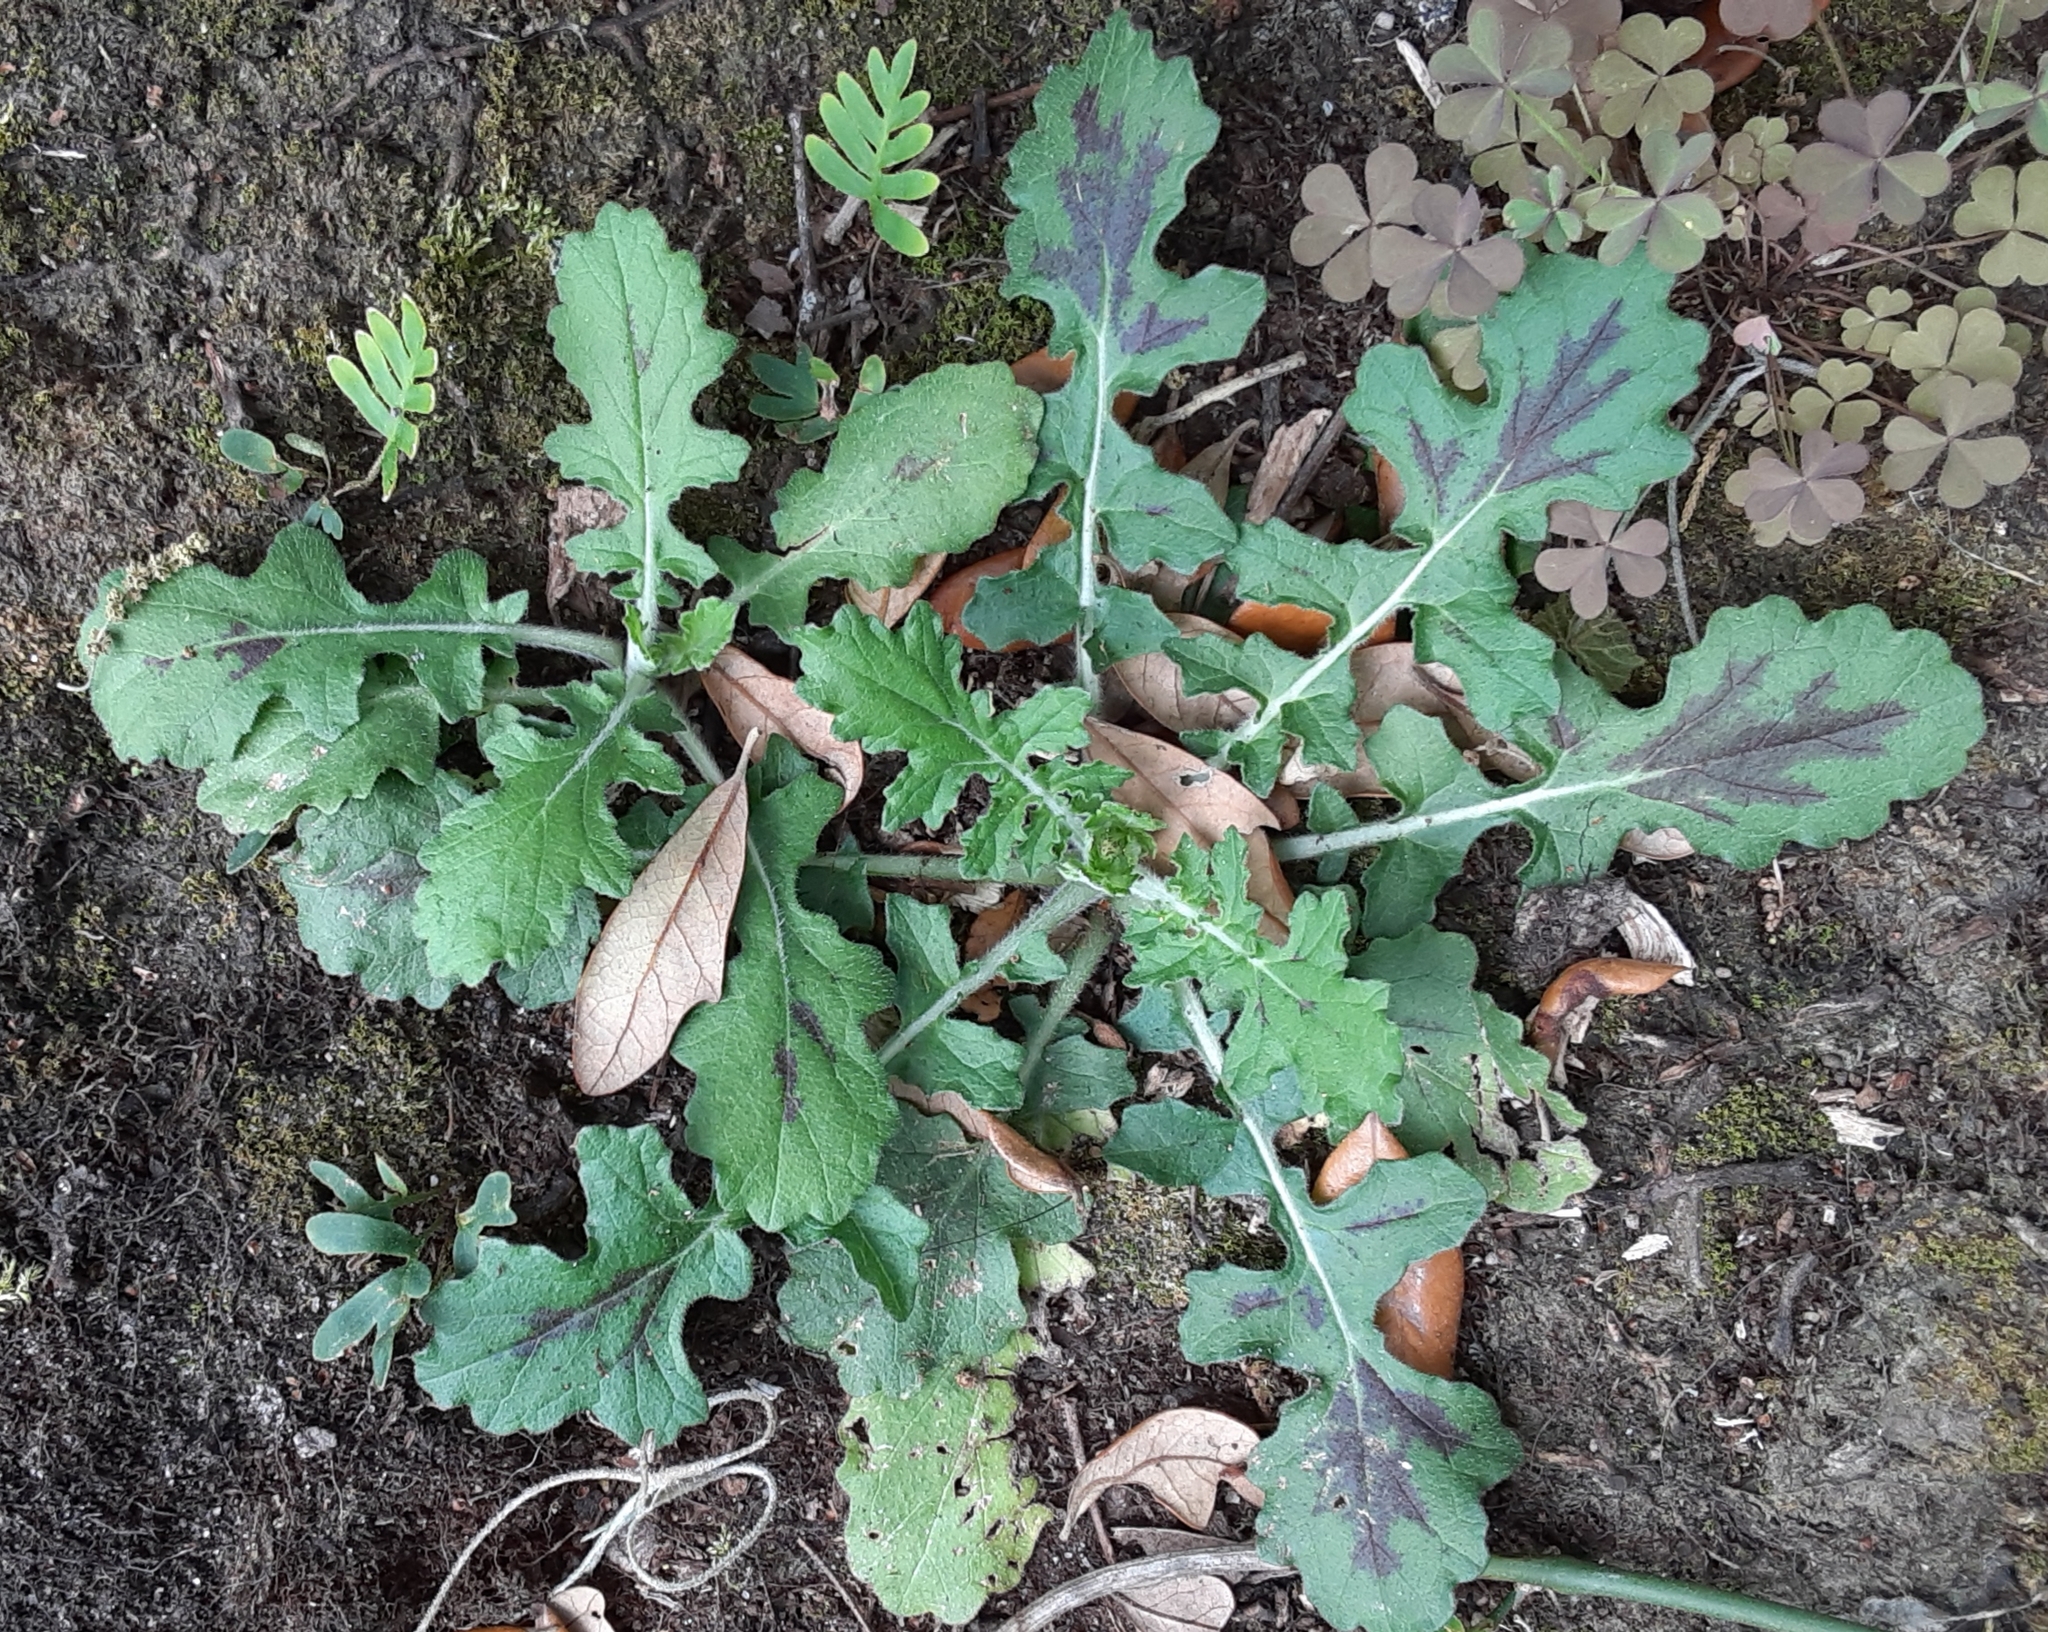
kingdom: Plantae
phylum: Tracheophyta
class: Magnoliopsida
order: Lamiales
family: Lamiaceae
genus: Salvia
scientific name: Salvia lyrata
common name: Cancerweed
